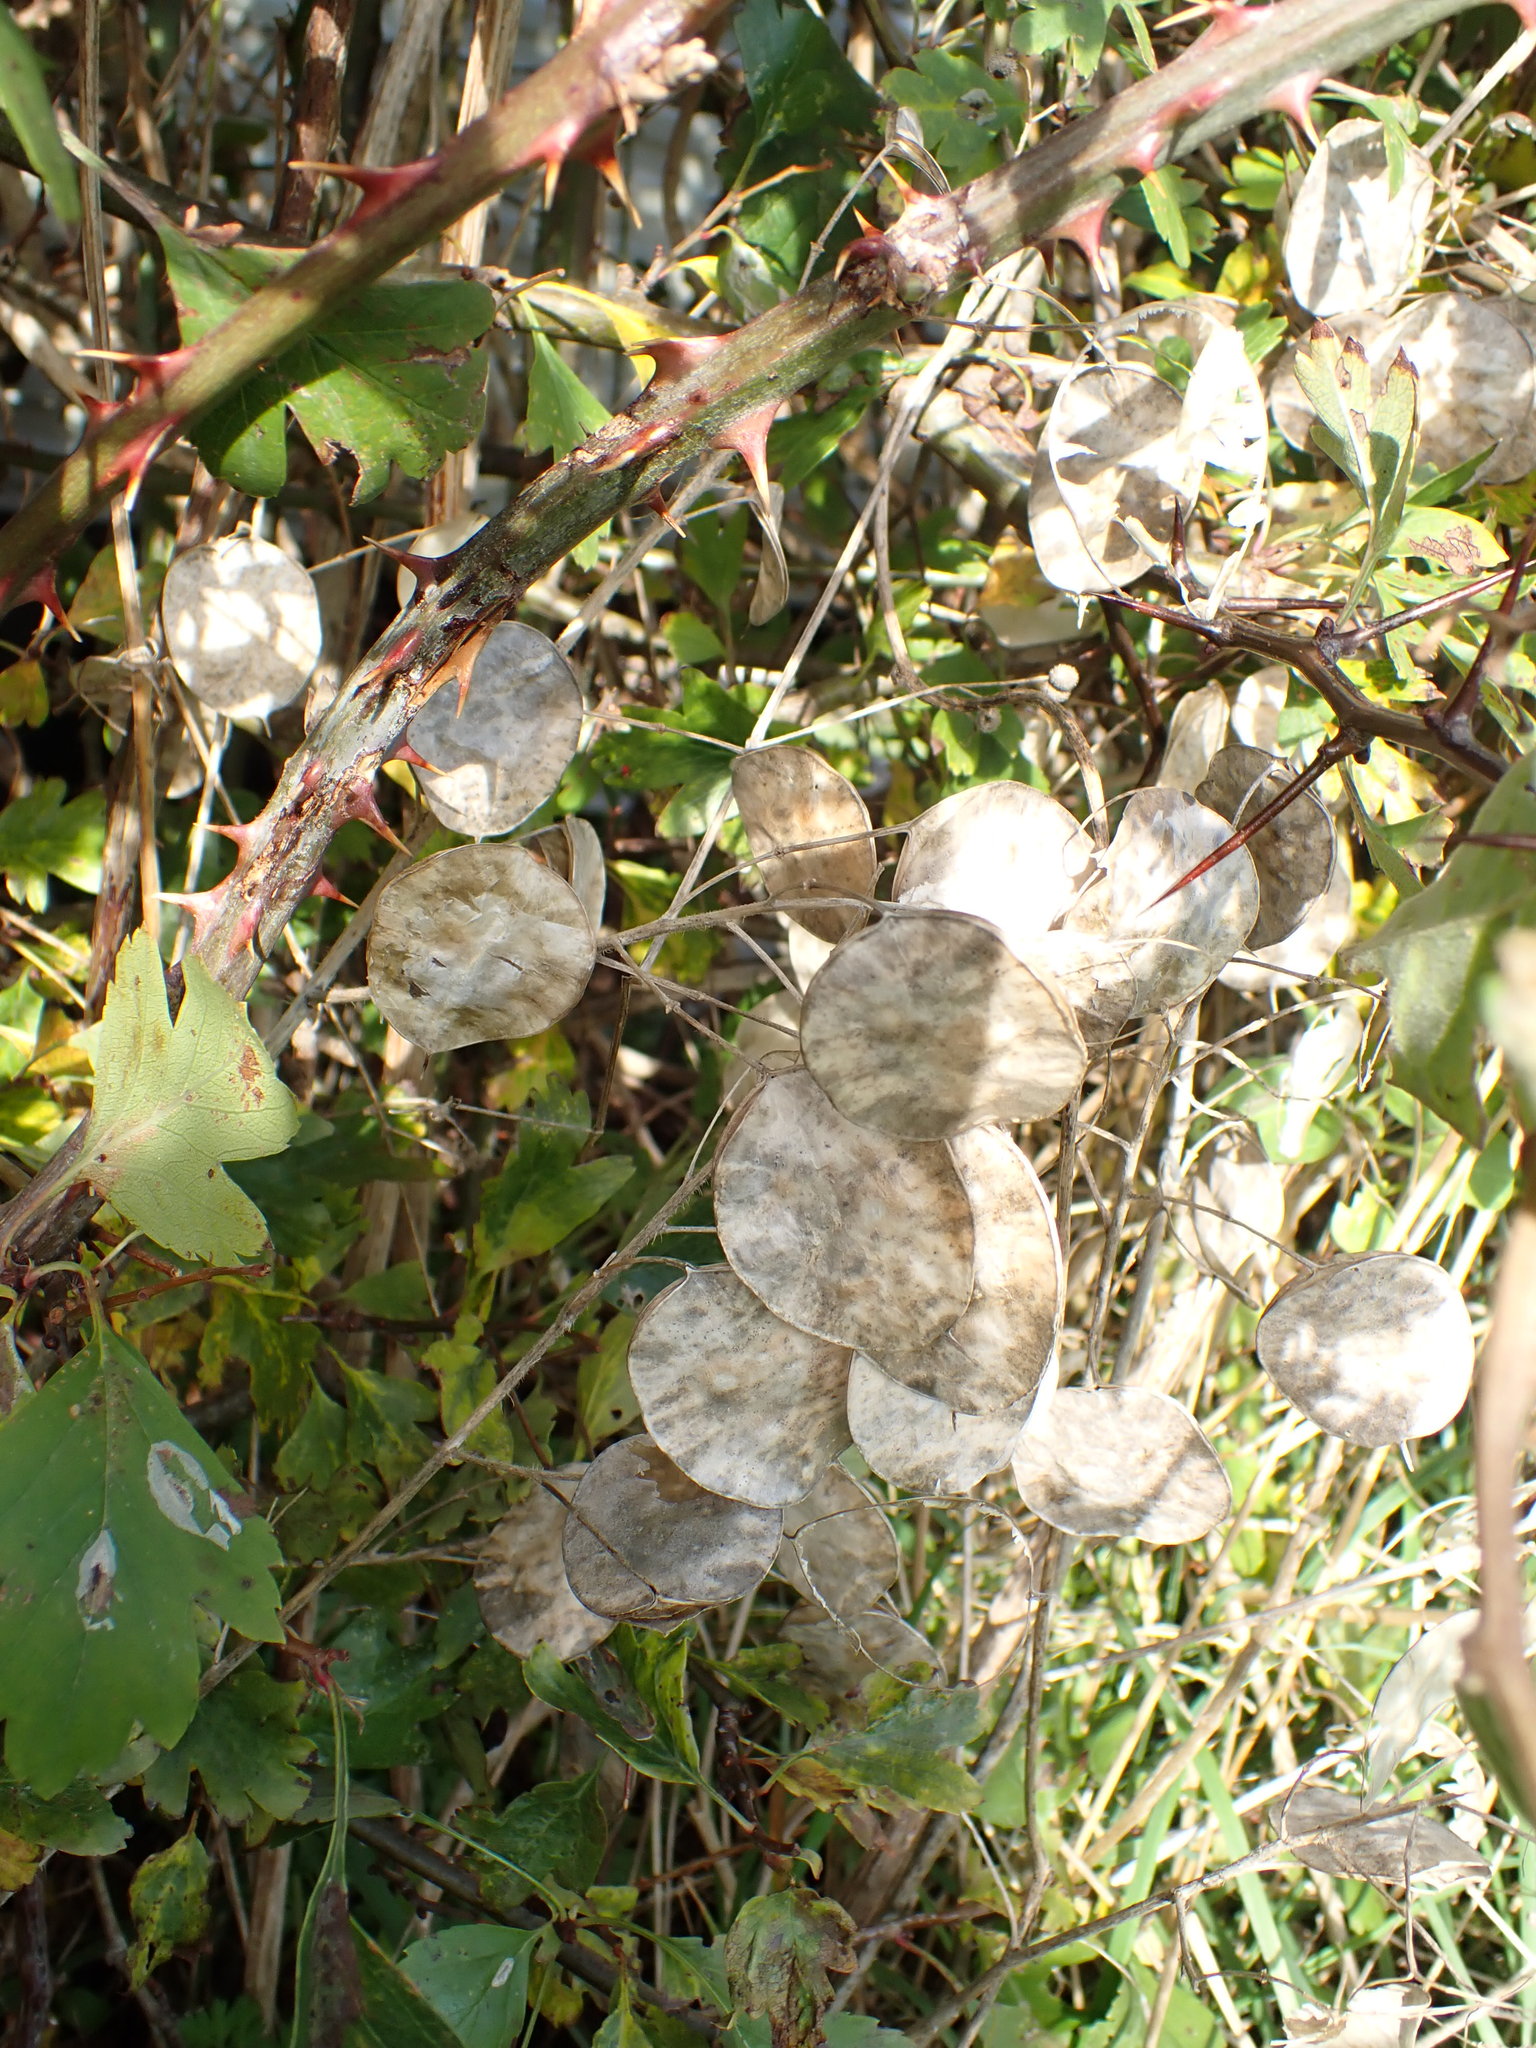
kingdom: Plantae
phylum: Tracheophyta
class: Magnoliopsida
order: Brassicales
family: Brassicaceae
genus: Lunaria
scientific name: Lunaria annua
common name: Honesty
